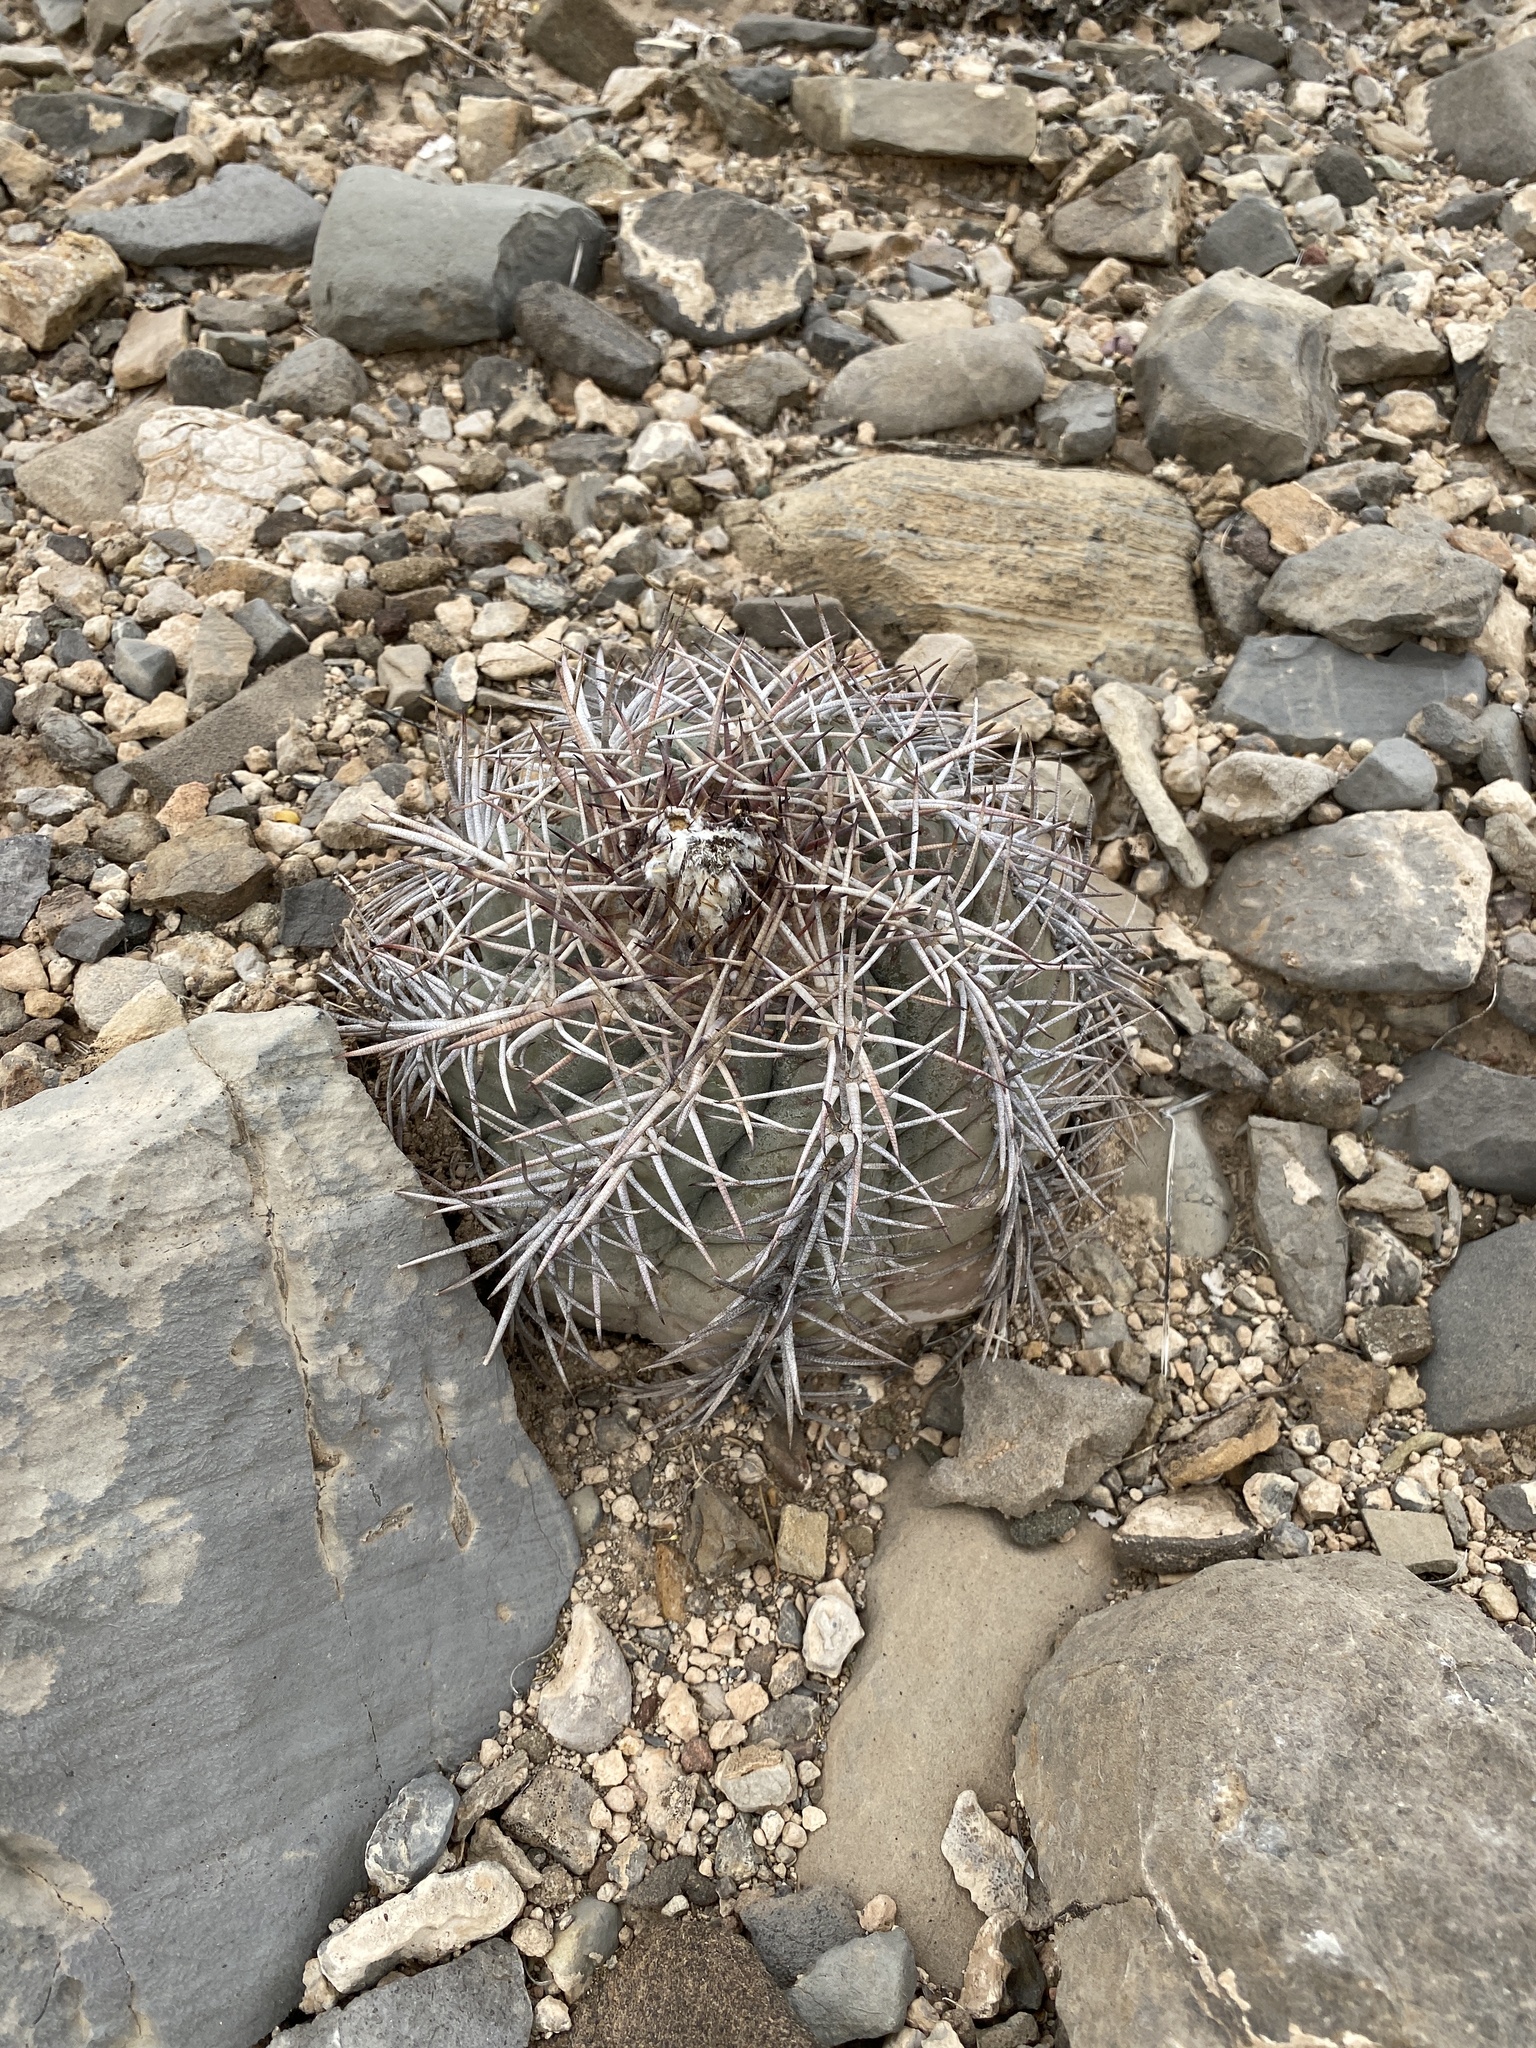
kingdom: Plantae
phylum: Tracheophyta
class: Magnoliopsida
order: Caryophyllales
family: Cactaceae
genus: Echinocactus
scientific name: Echinocactus horizonthalonius
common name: Devilshead
